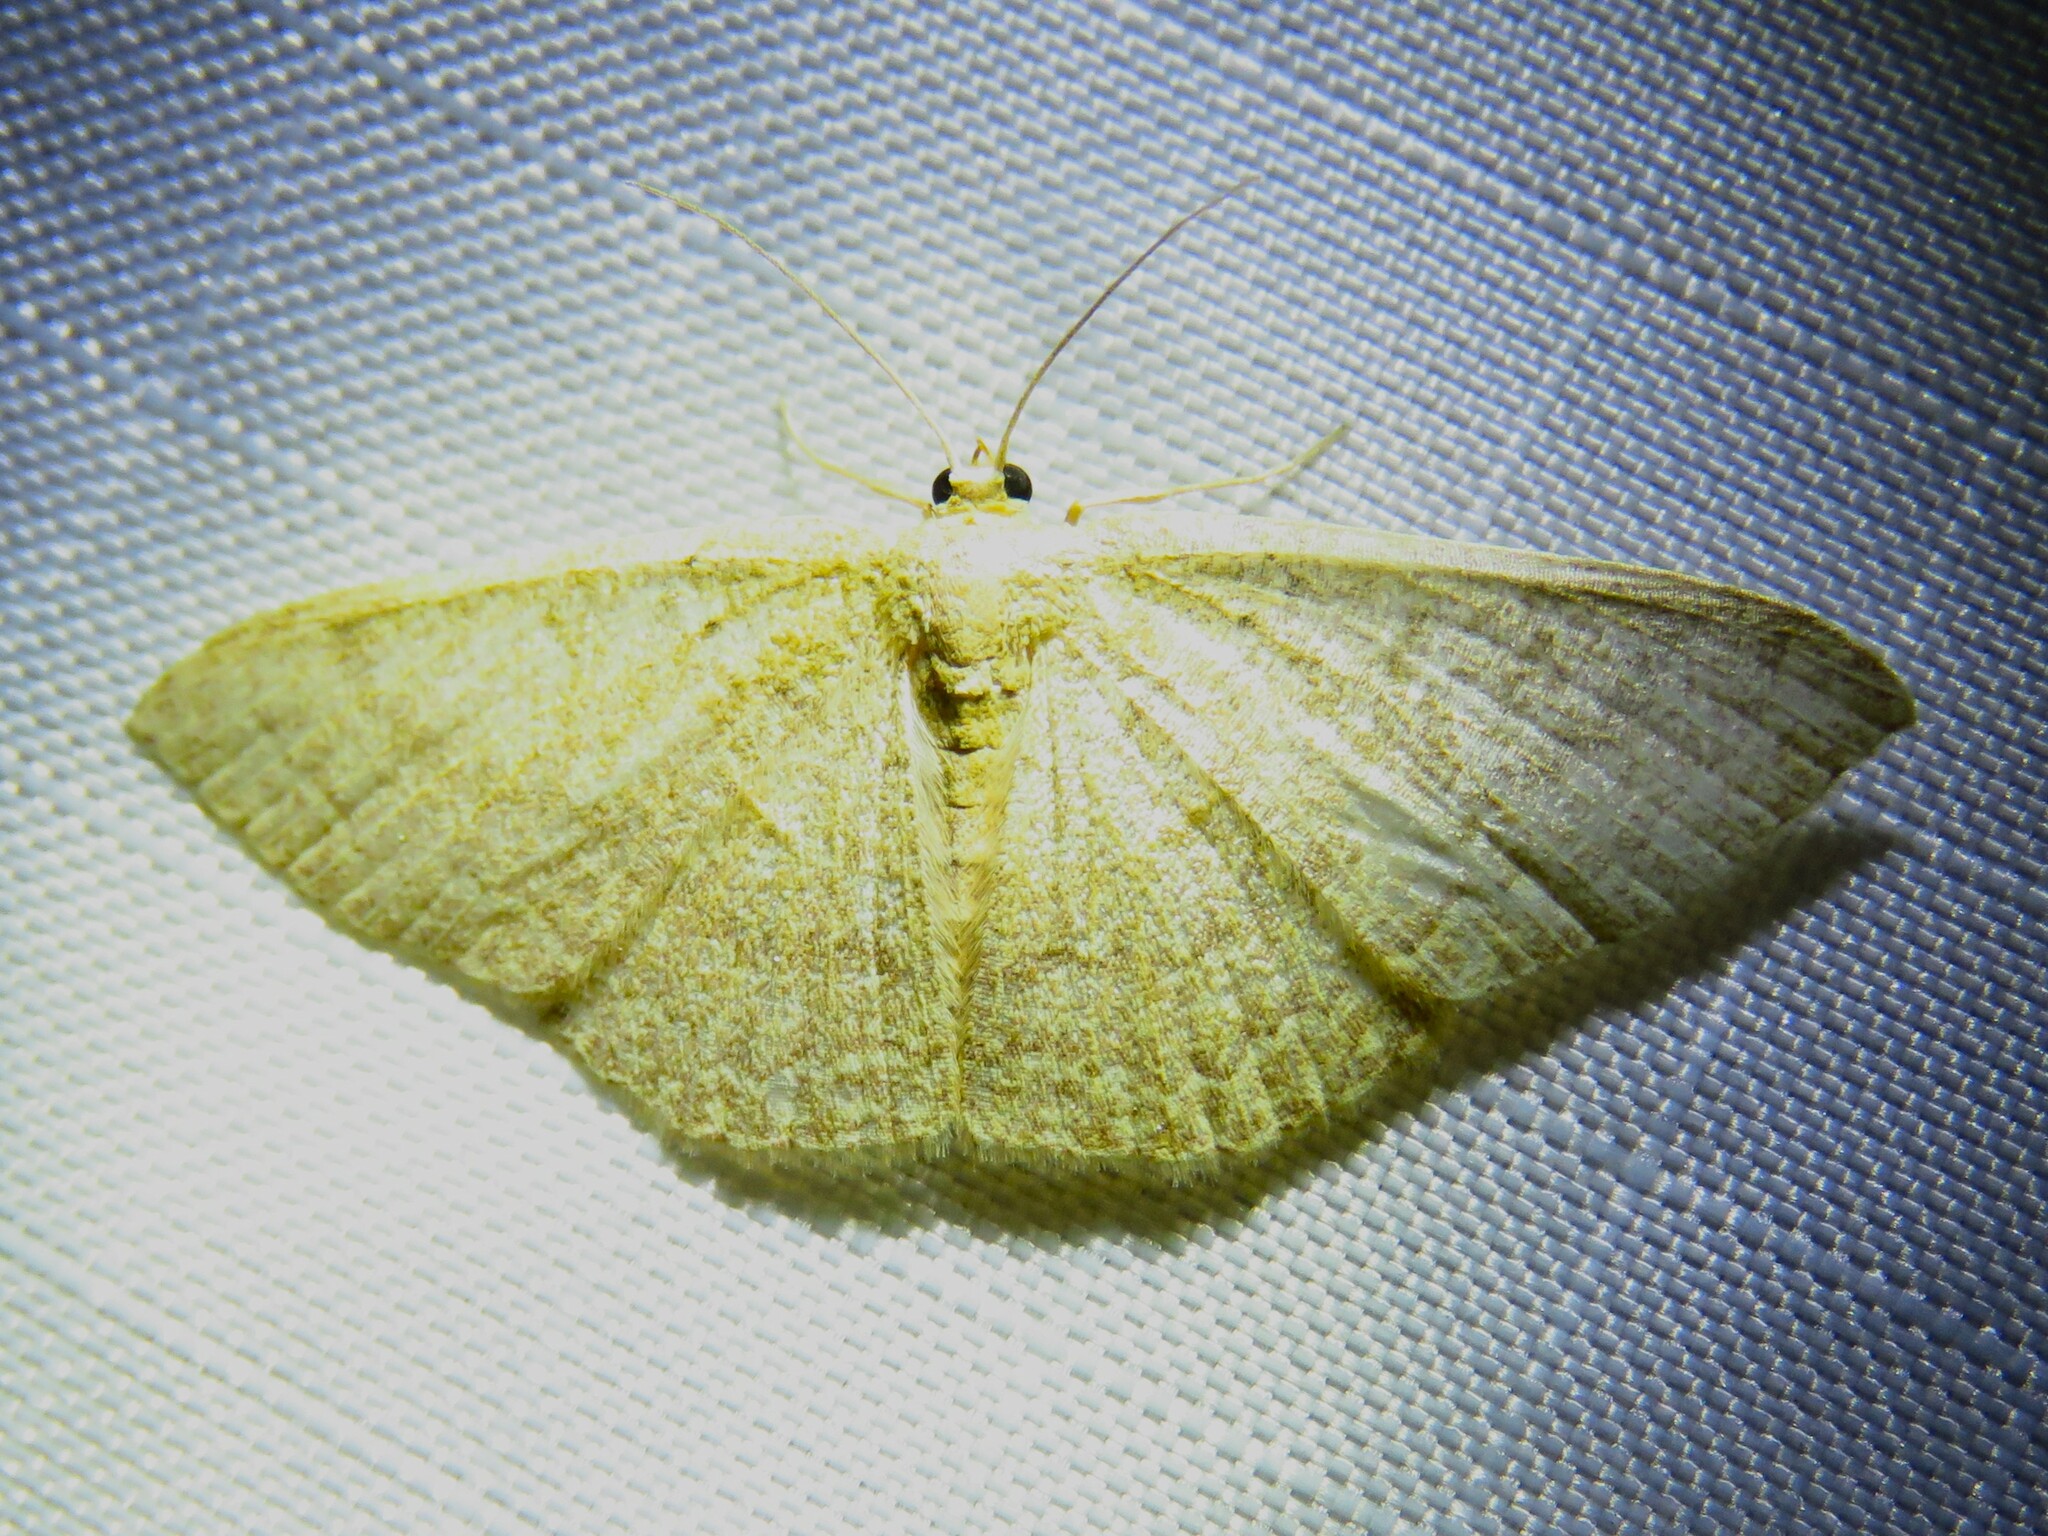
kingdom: Animalia
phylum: Arthropoda
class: Insecta
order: Lepidoptera
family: Geometridae
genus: Pleuroprucha
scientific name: Pleuroprucha insulsaria
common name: Common tan wave
